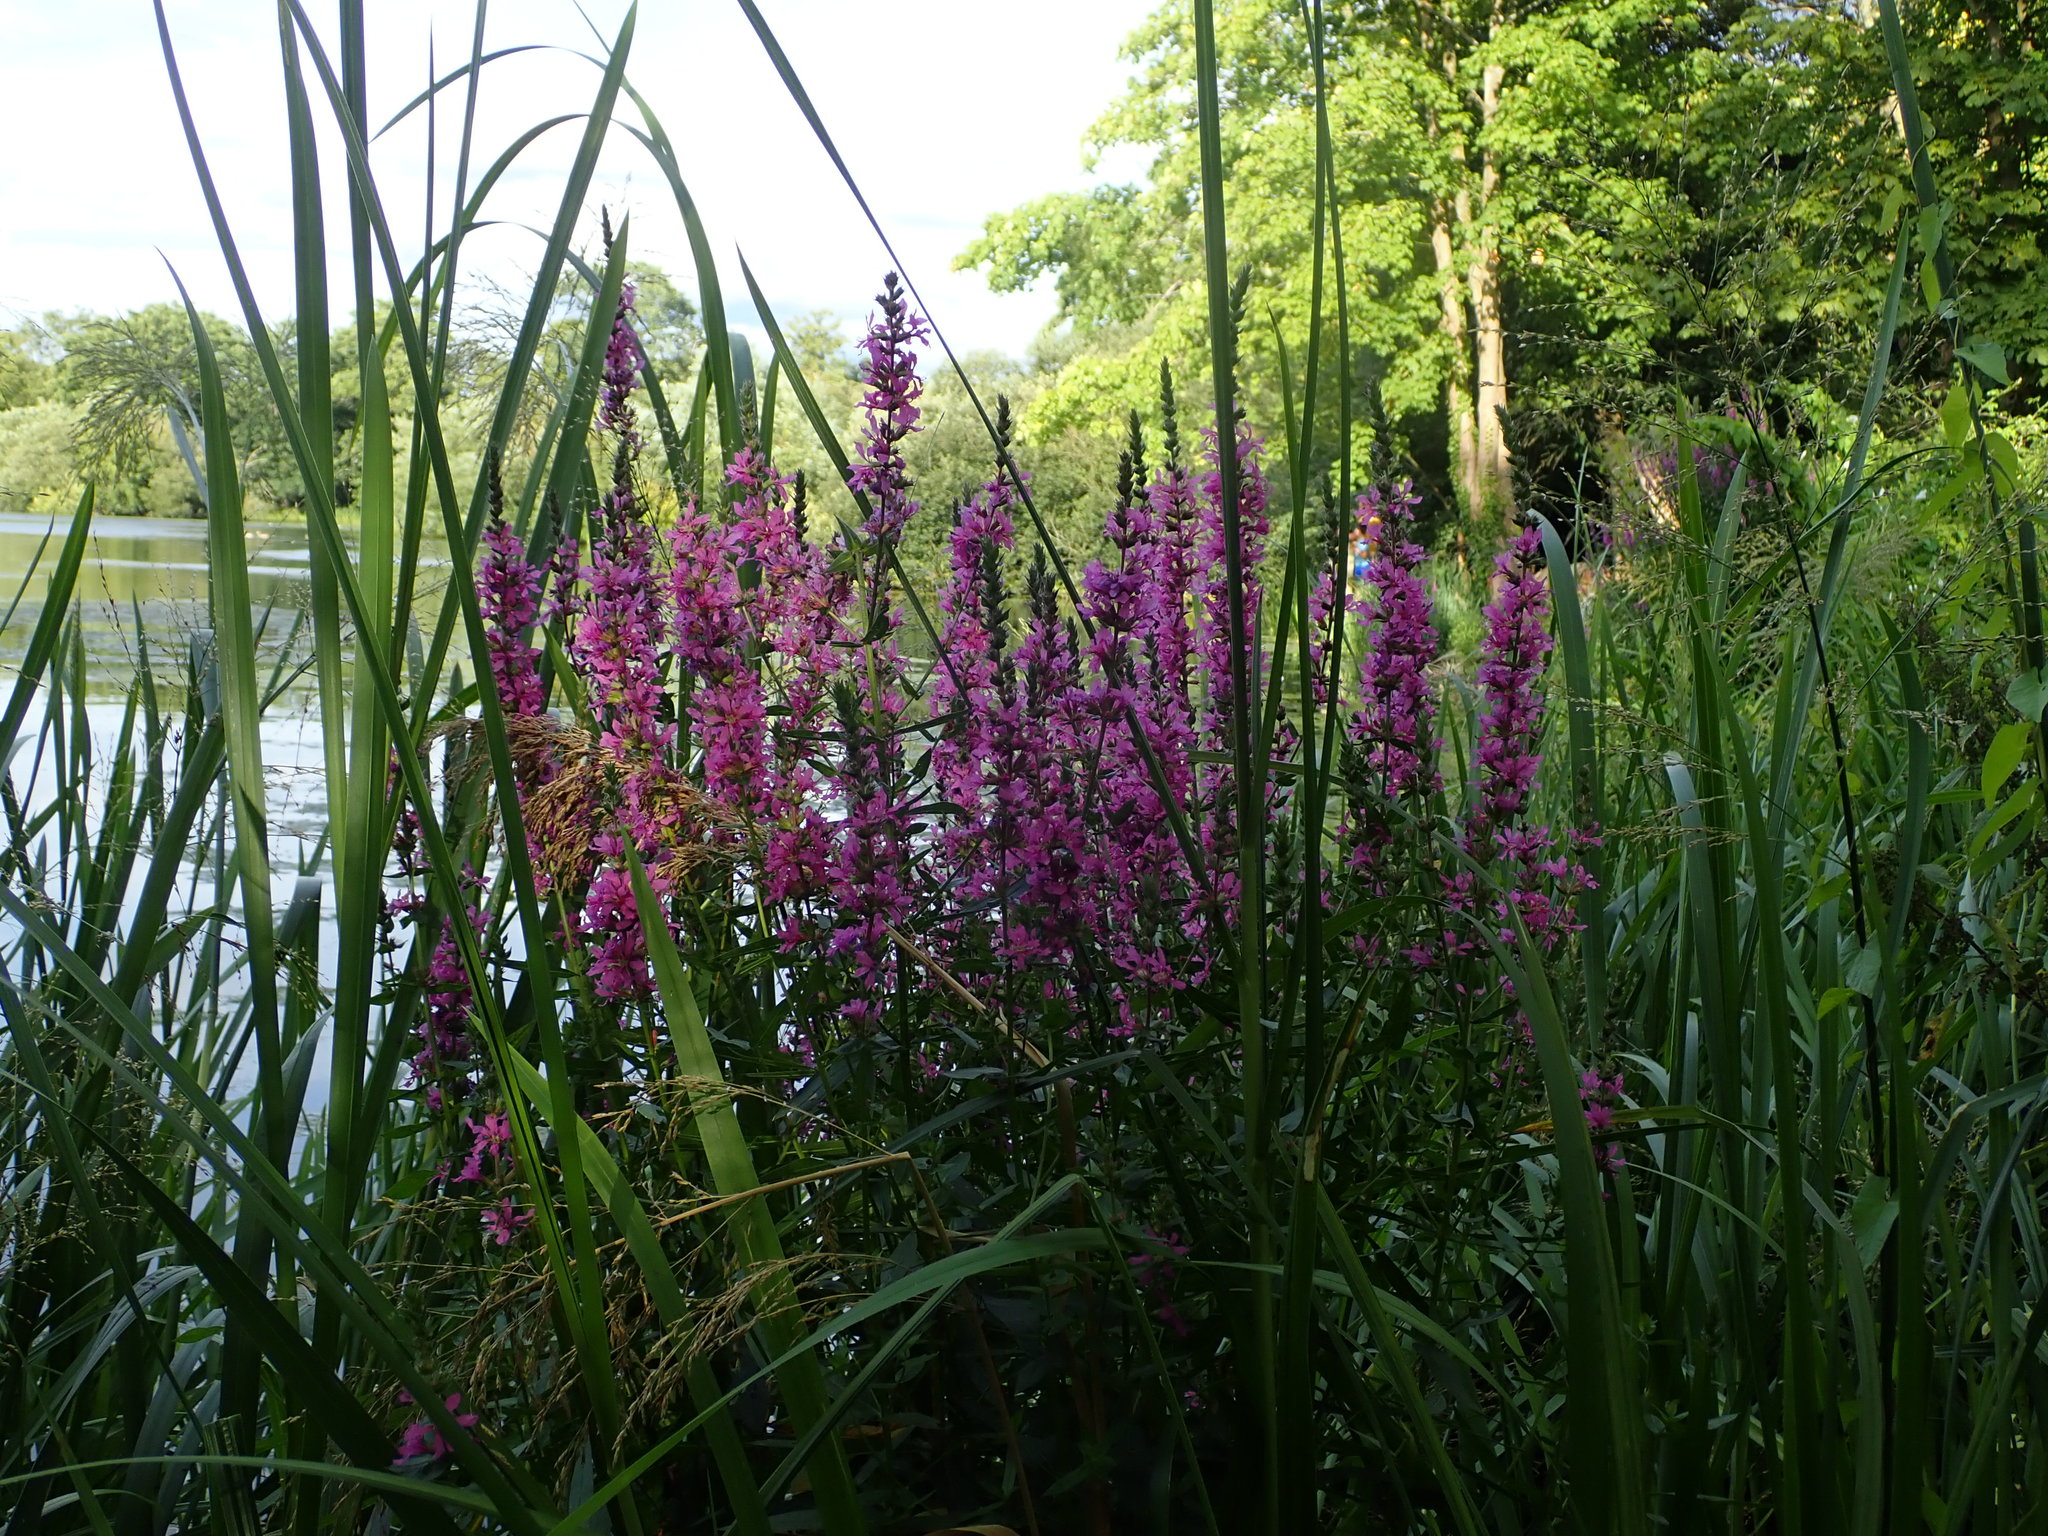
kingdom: Plantae
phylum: Tracheophyta
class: Magnoliopsida
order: Myrtales
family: Lythraceae
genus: Lythrum
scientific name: Lythrum salicaria
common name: Purple loosestrife
